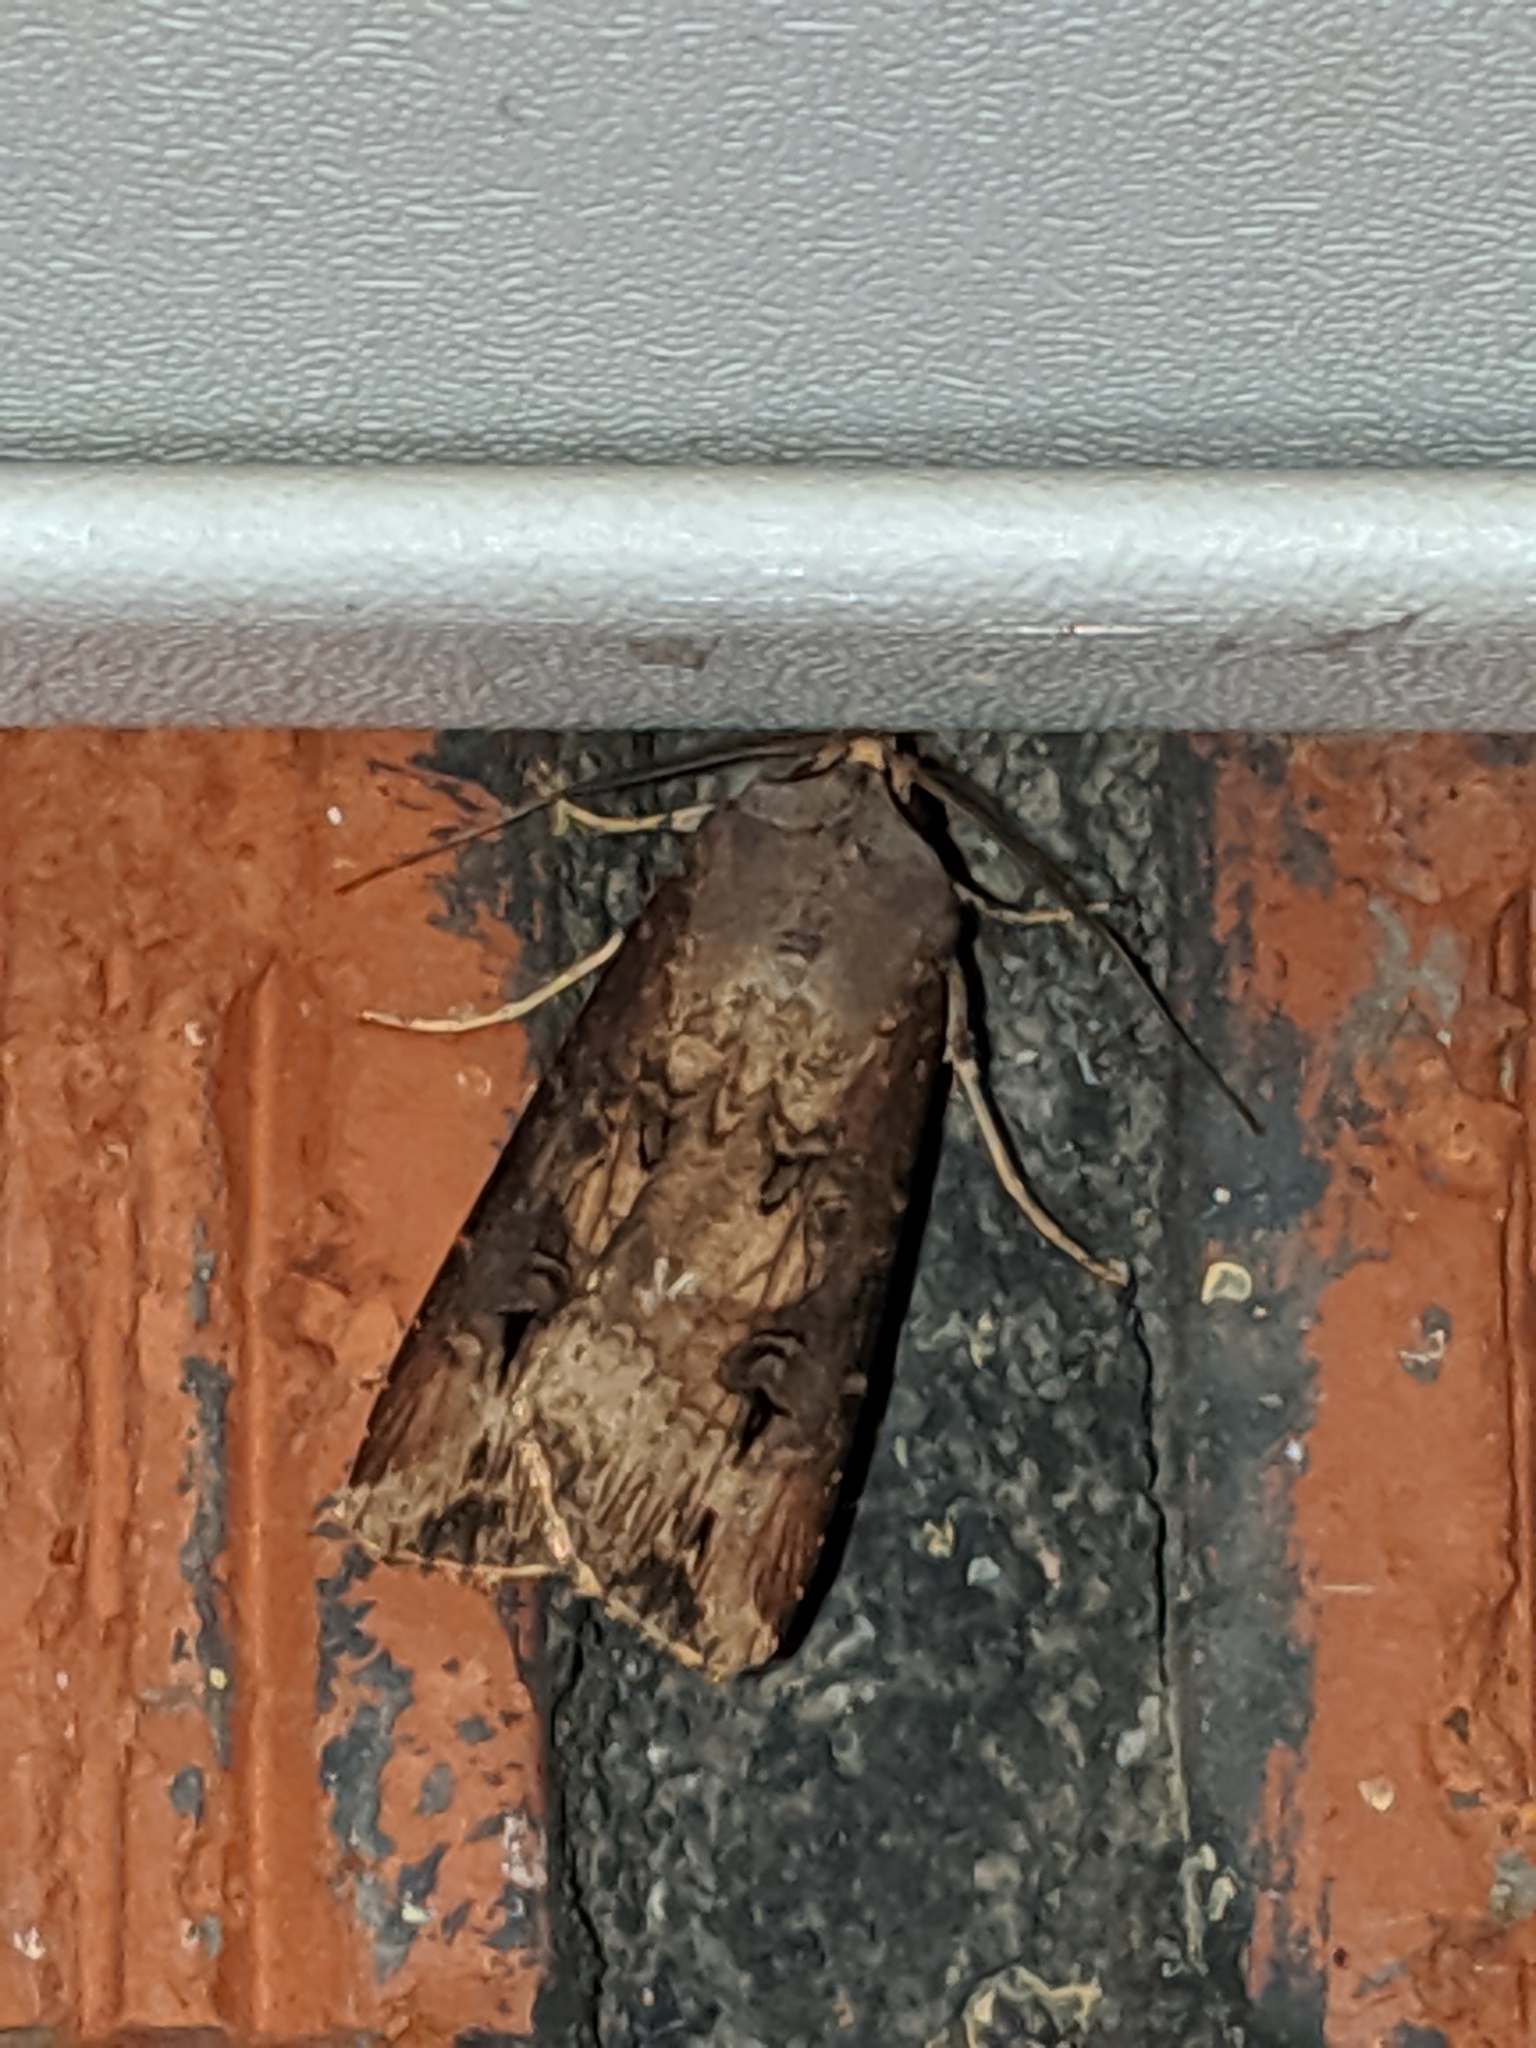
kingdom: Animalia
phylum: Arthropoda
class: Insecta
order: Lepidoptera
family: Noctuidae
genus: Agrotis
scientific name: Agrotis ipsilon
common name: Dark sword-grass
